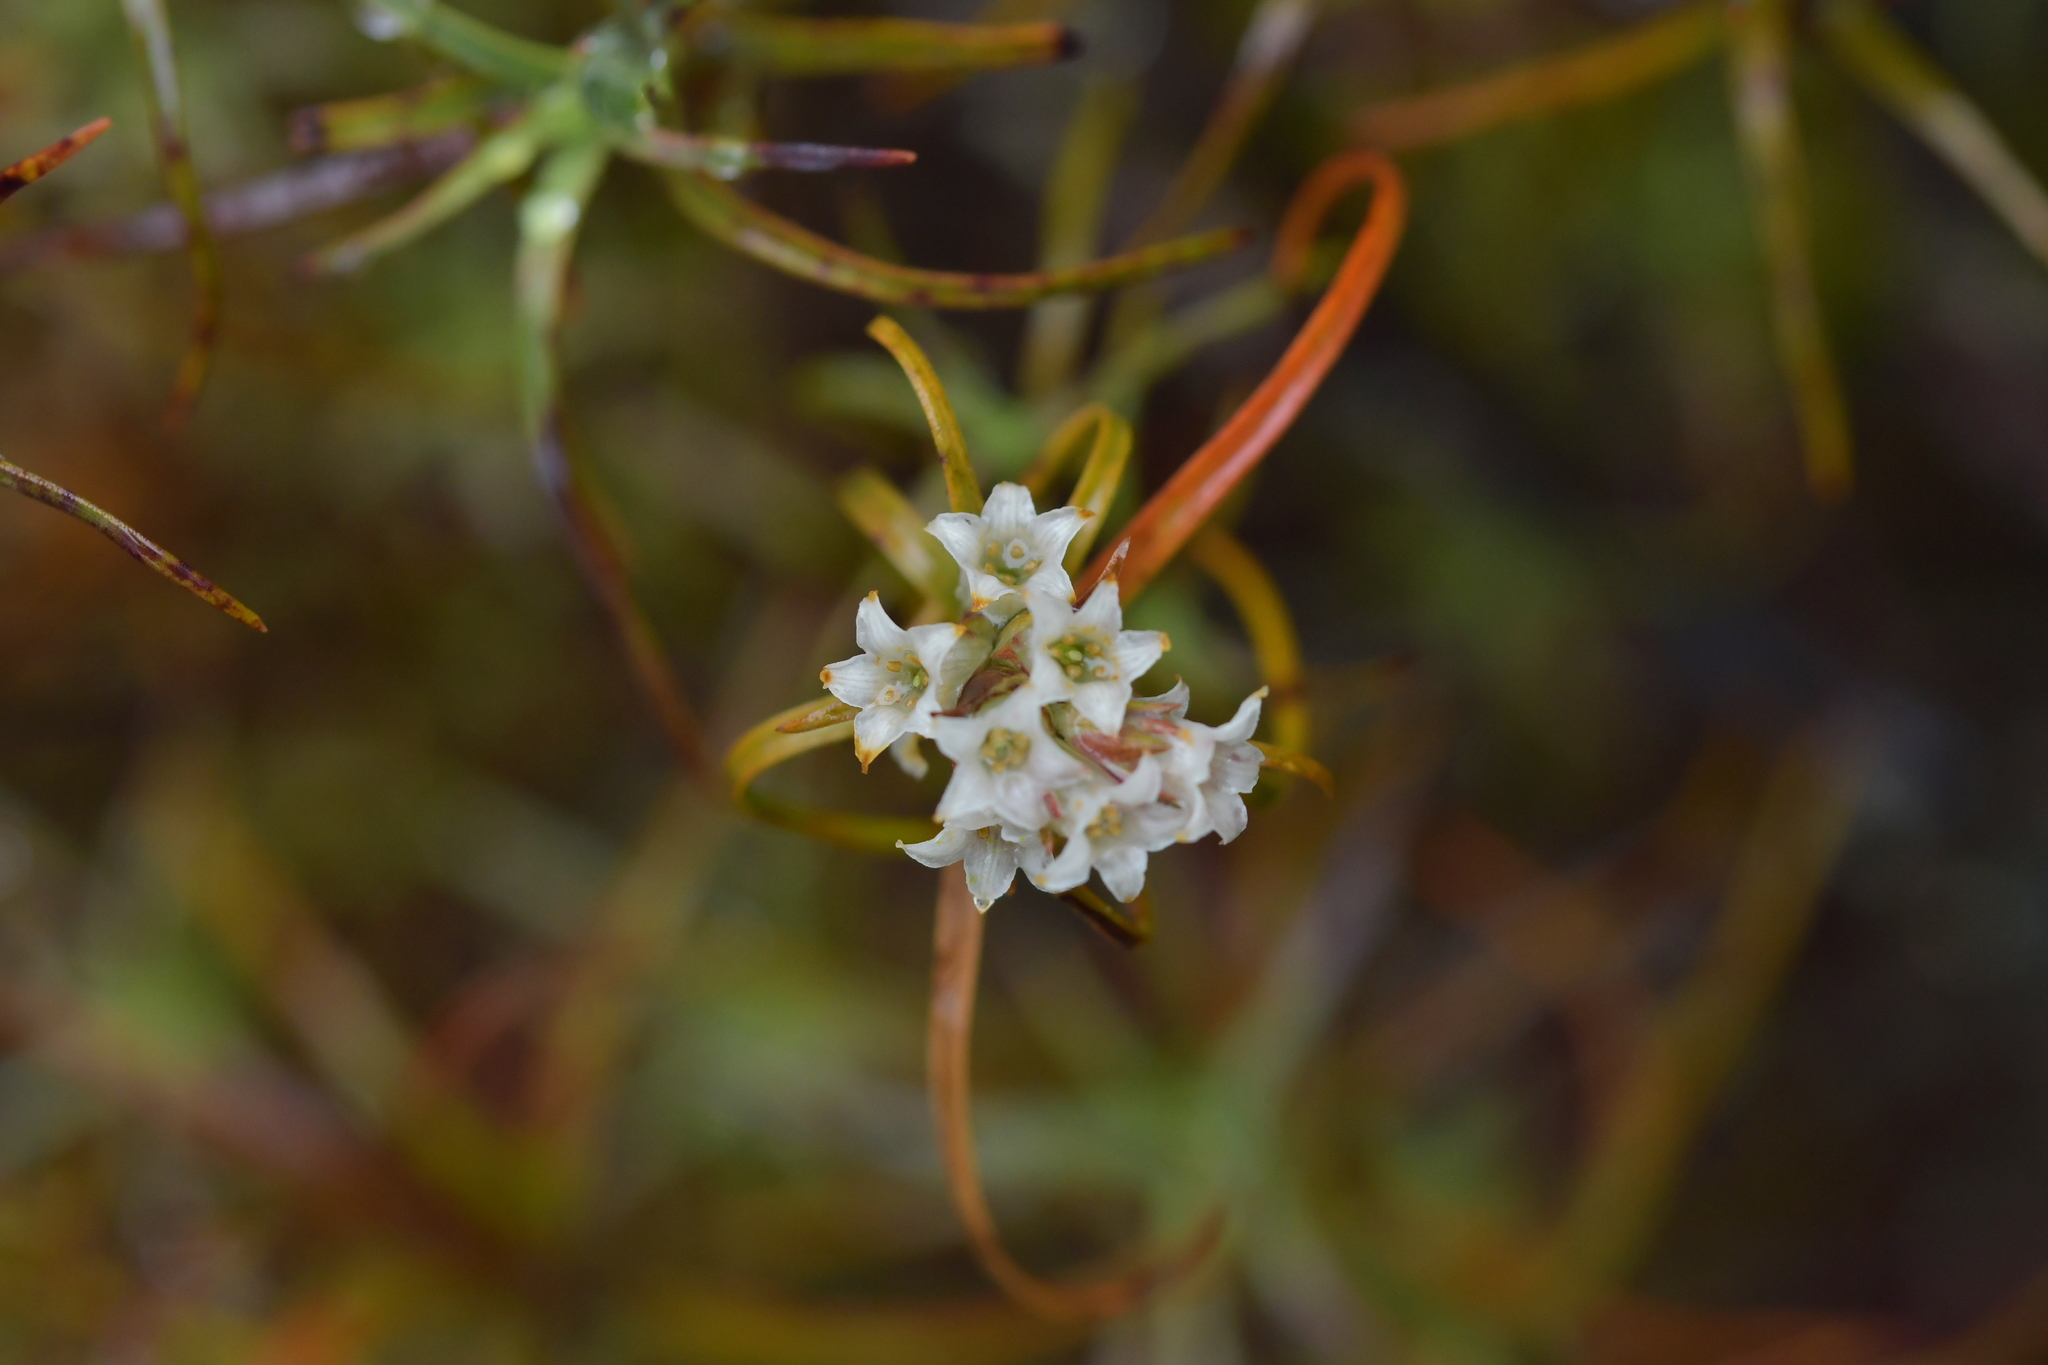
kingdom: Plantae
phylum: Tracheophyta
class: Magnoliopsida
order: Ericales
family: Ericaceae
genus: Dracophyllum
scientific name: Dracophyllum recurvum
